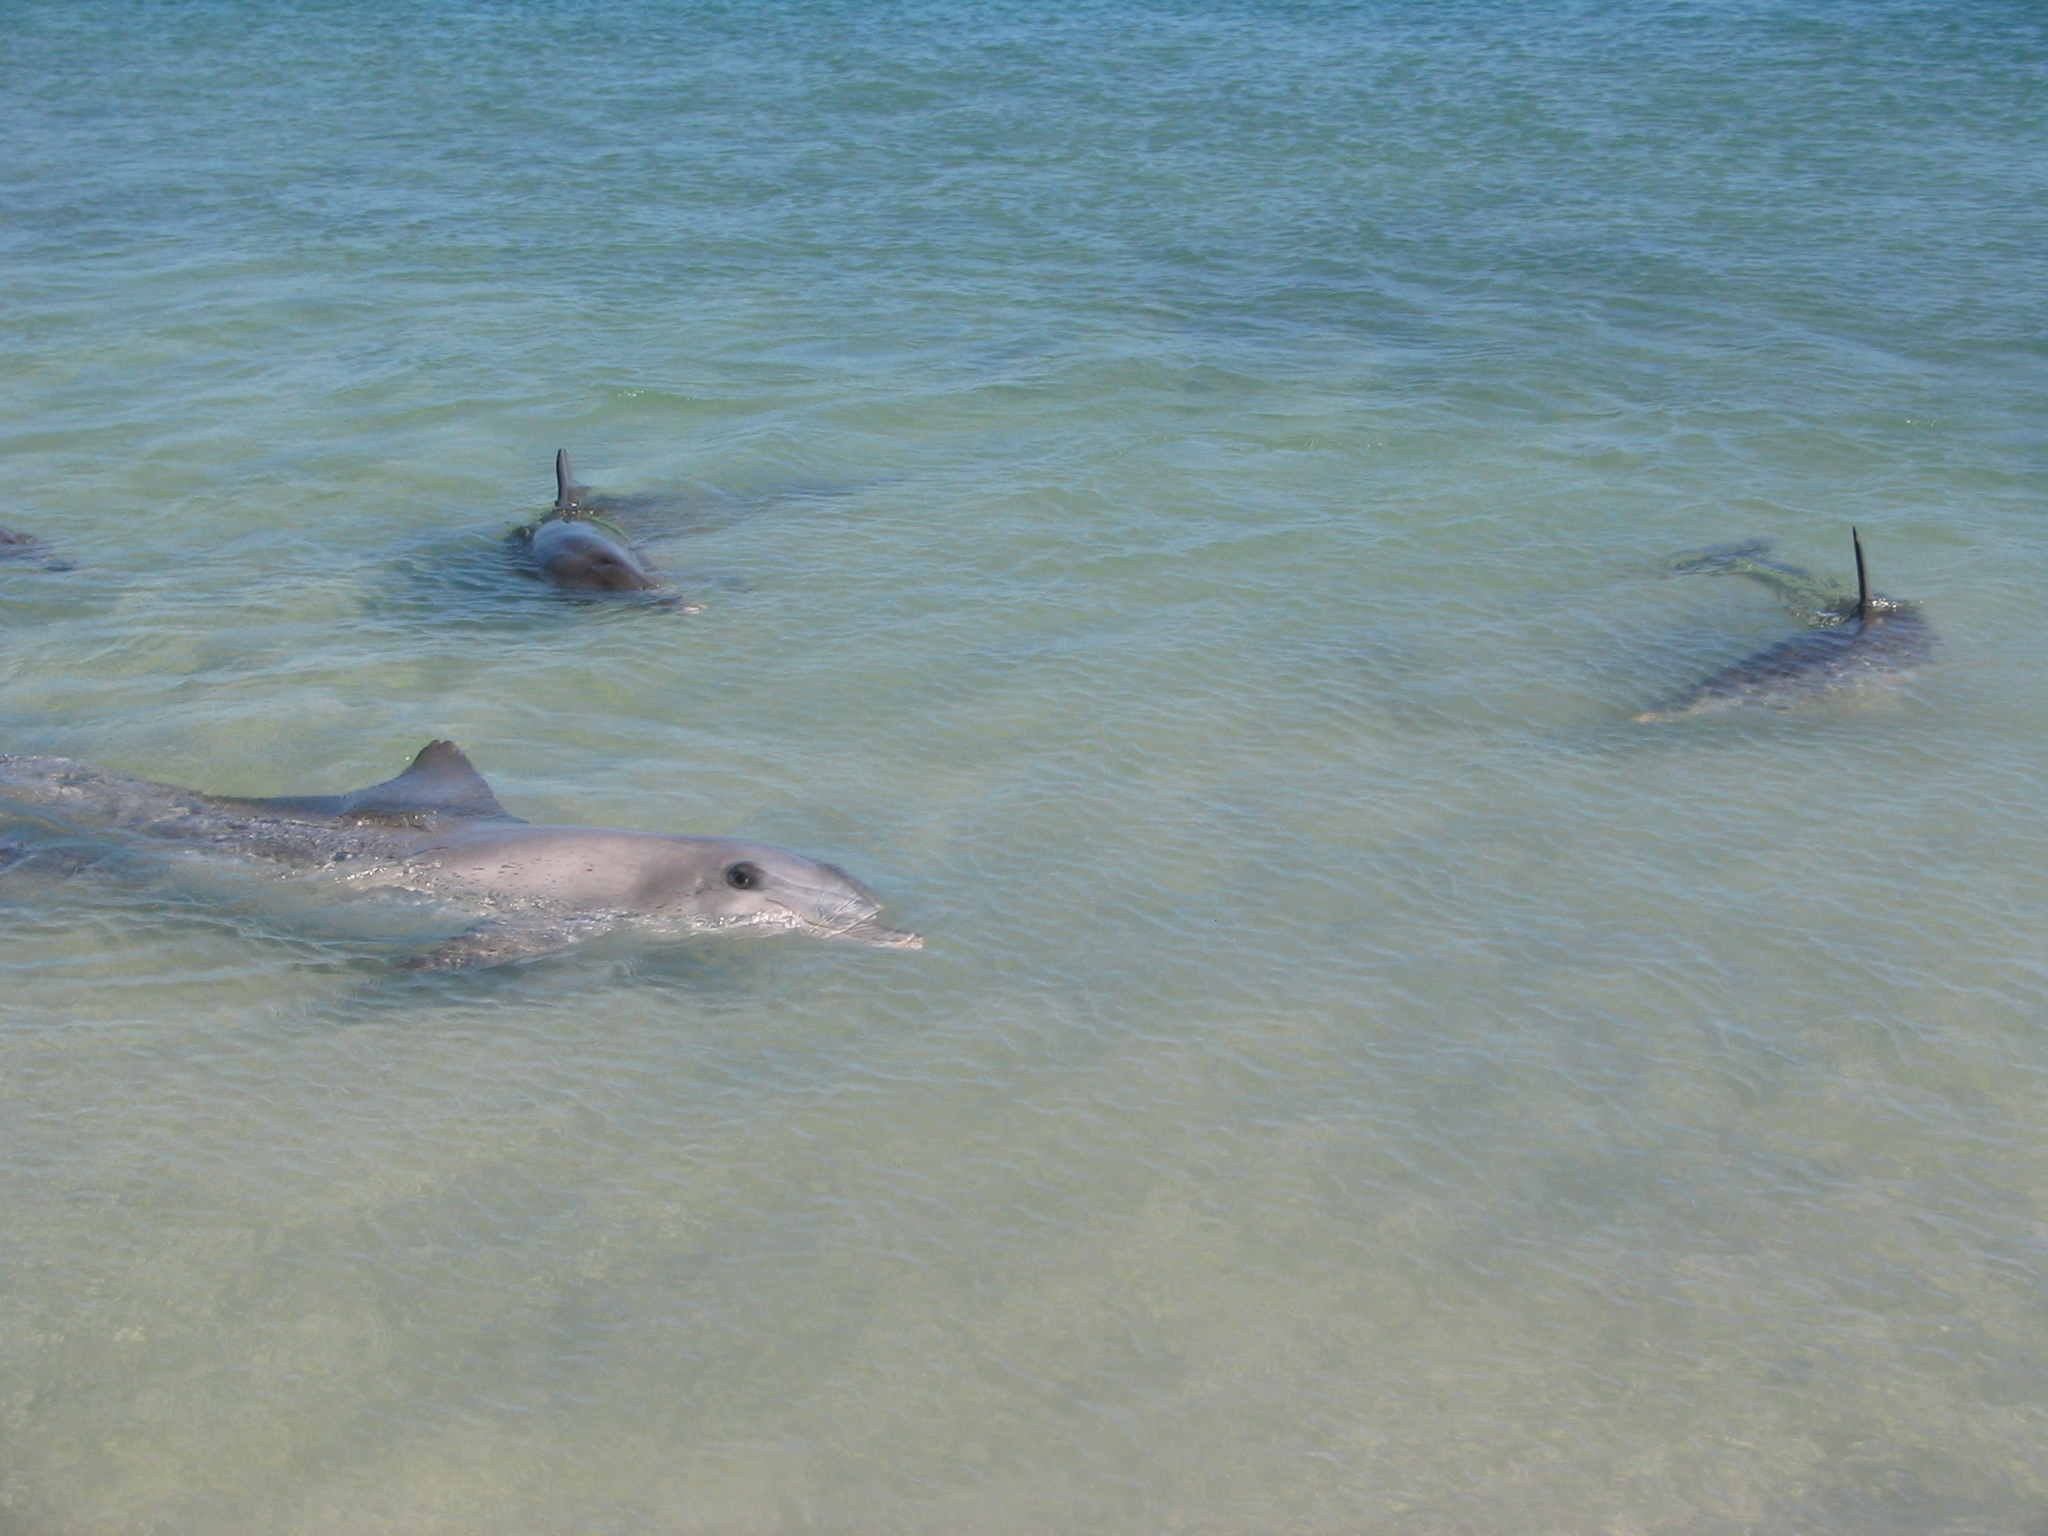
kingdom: Animalia
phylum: Chordata
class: Mammalia
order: Cetacea
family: Delphinidae
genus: Tursiops
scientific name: Tursiops aduncus
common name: Indo-pacific bottlenose dolphin
